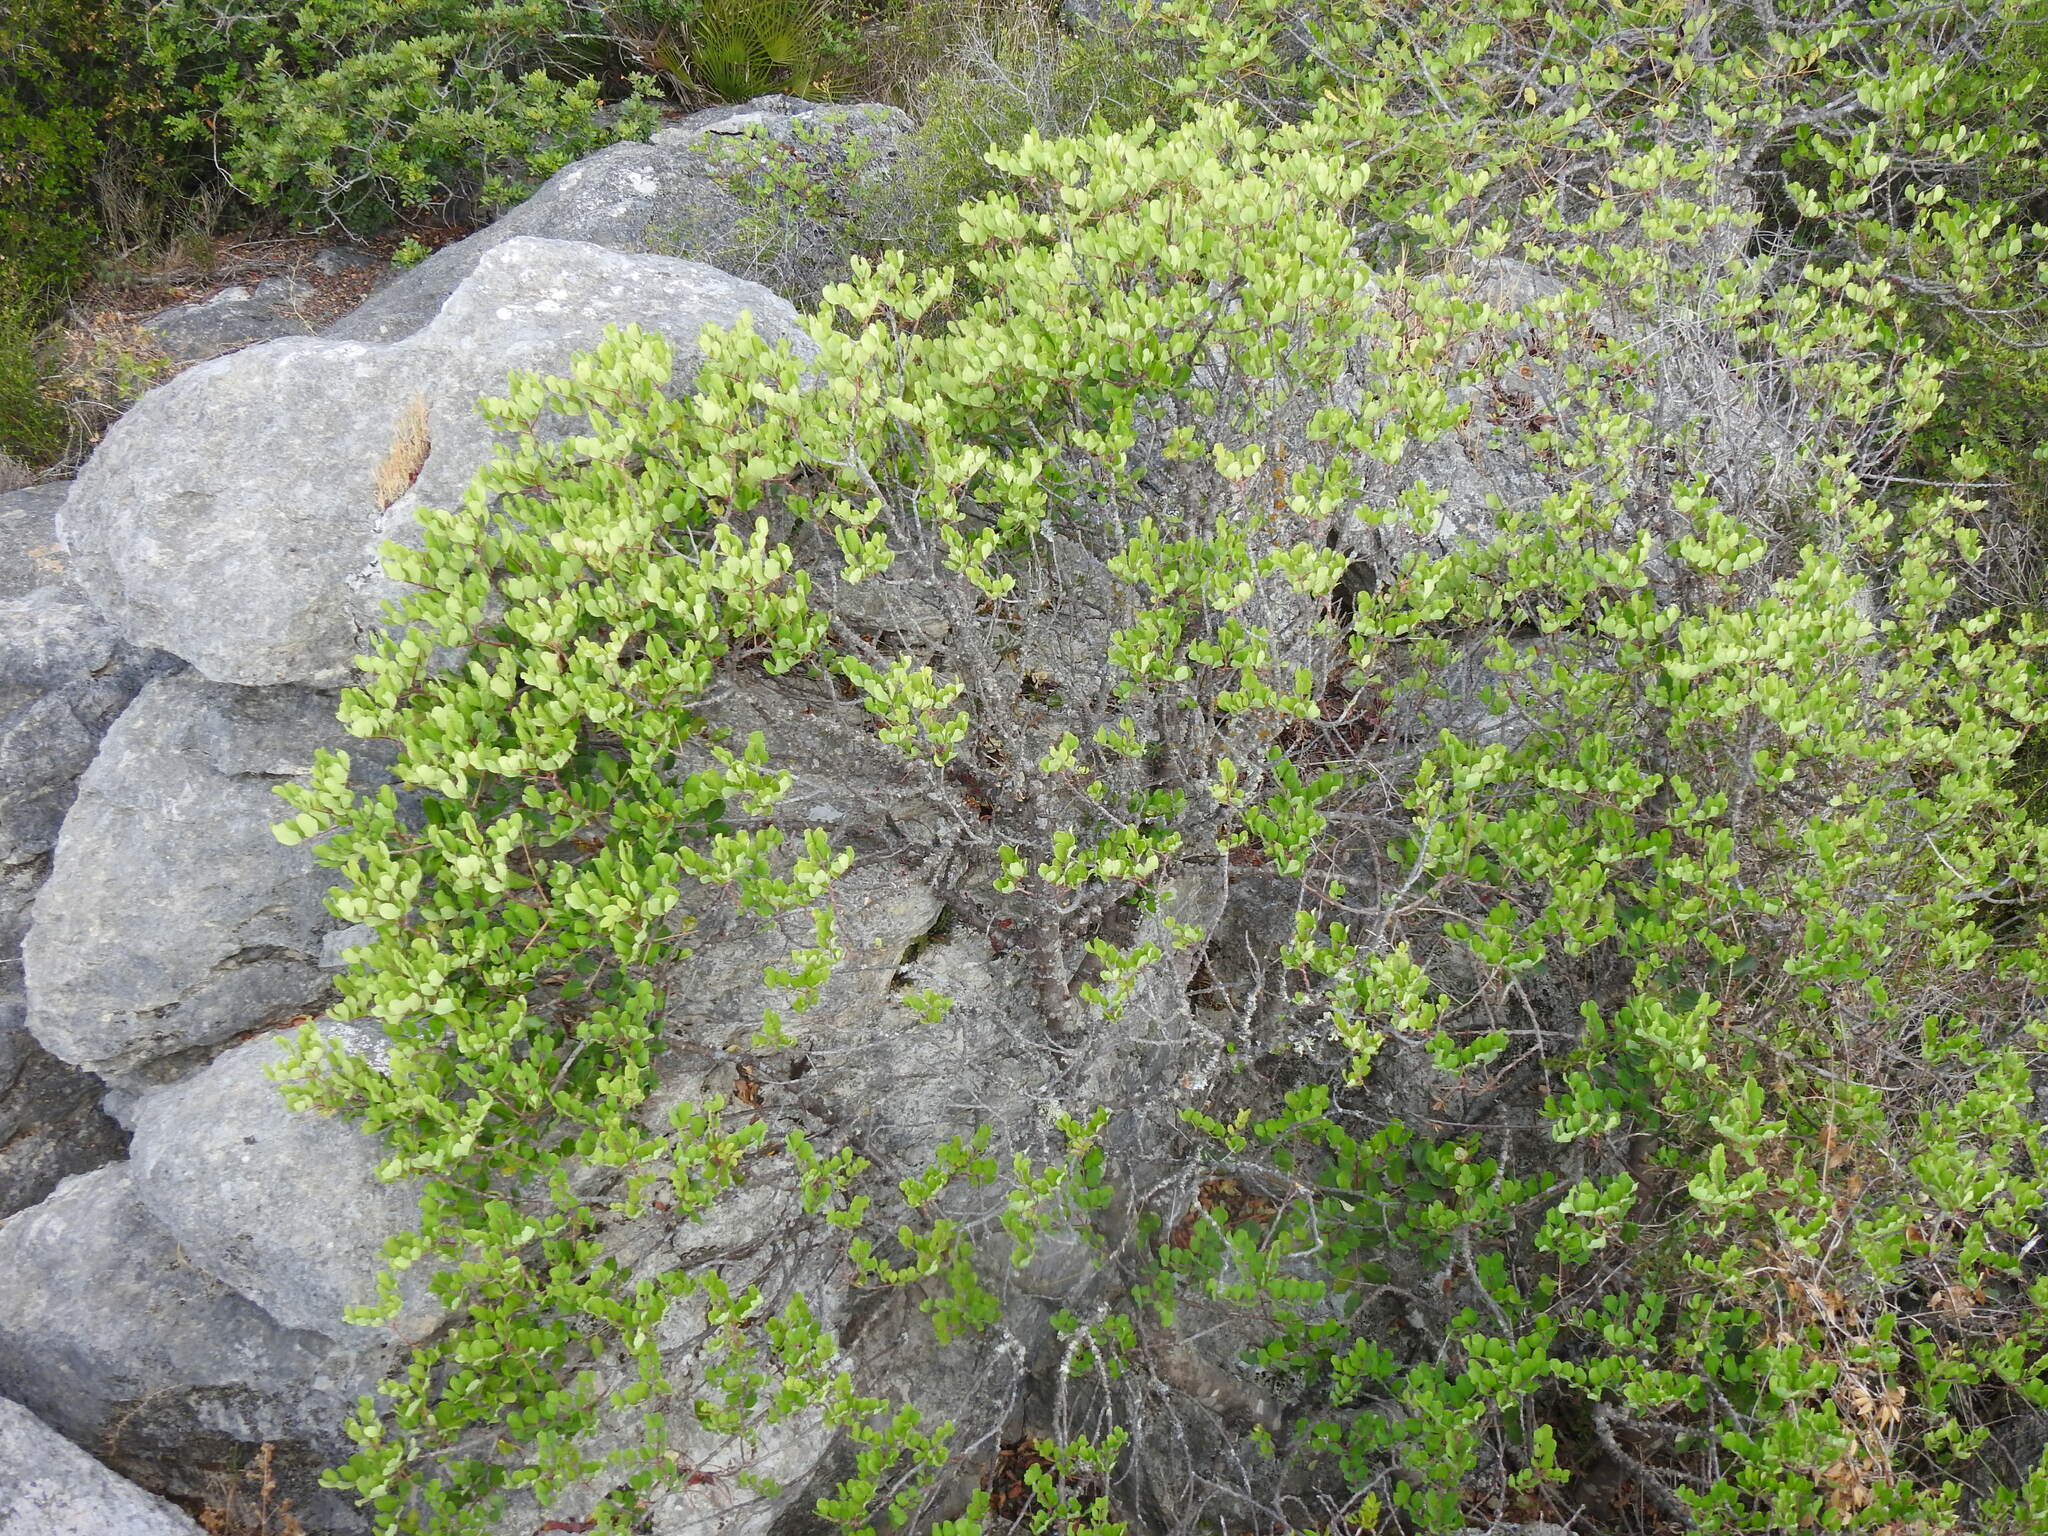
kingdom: Plantae
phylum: Tracheophyta
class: Magnoliopsida
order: Fabales
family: Fabaceae
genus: Ceratonia
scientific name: Ceratonia siliqua
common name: Carob
